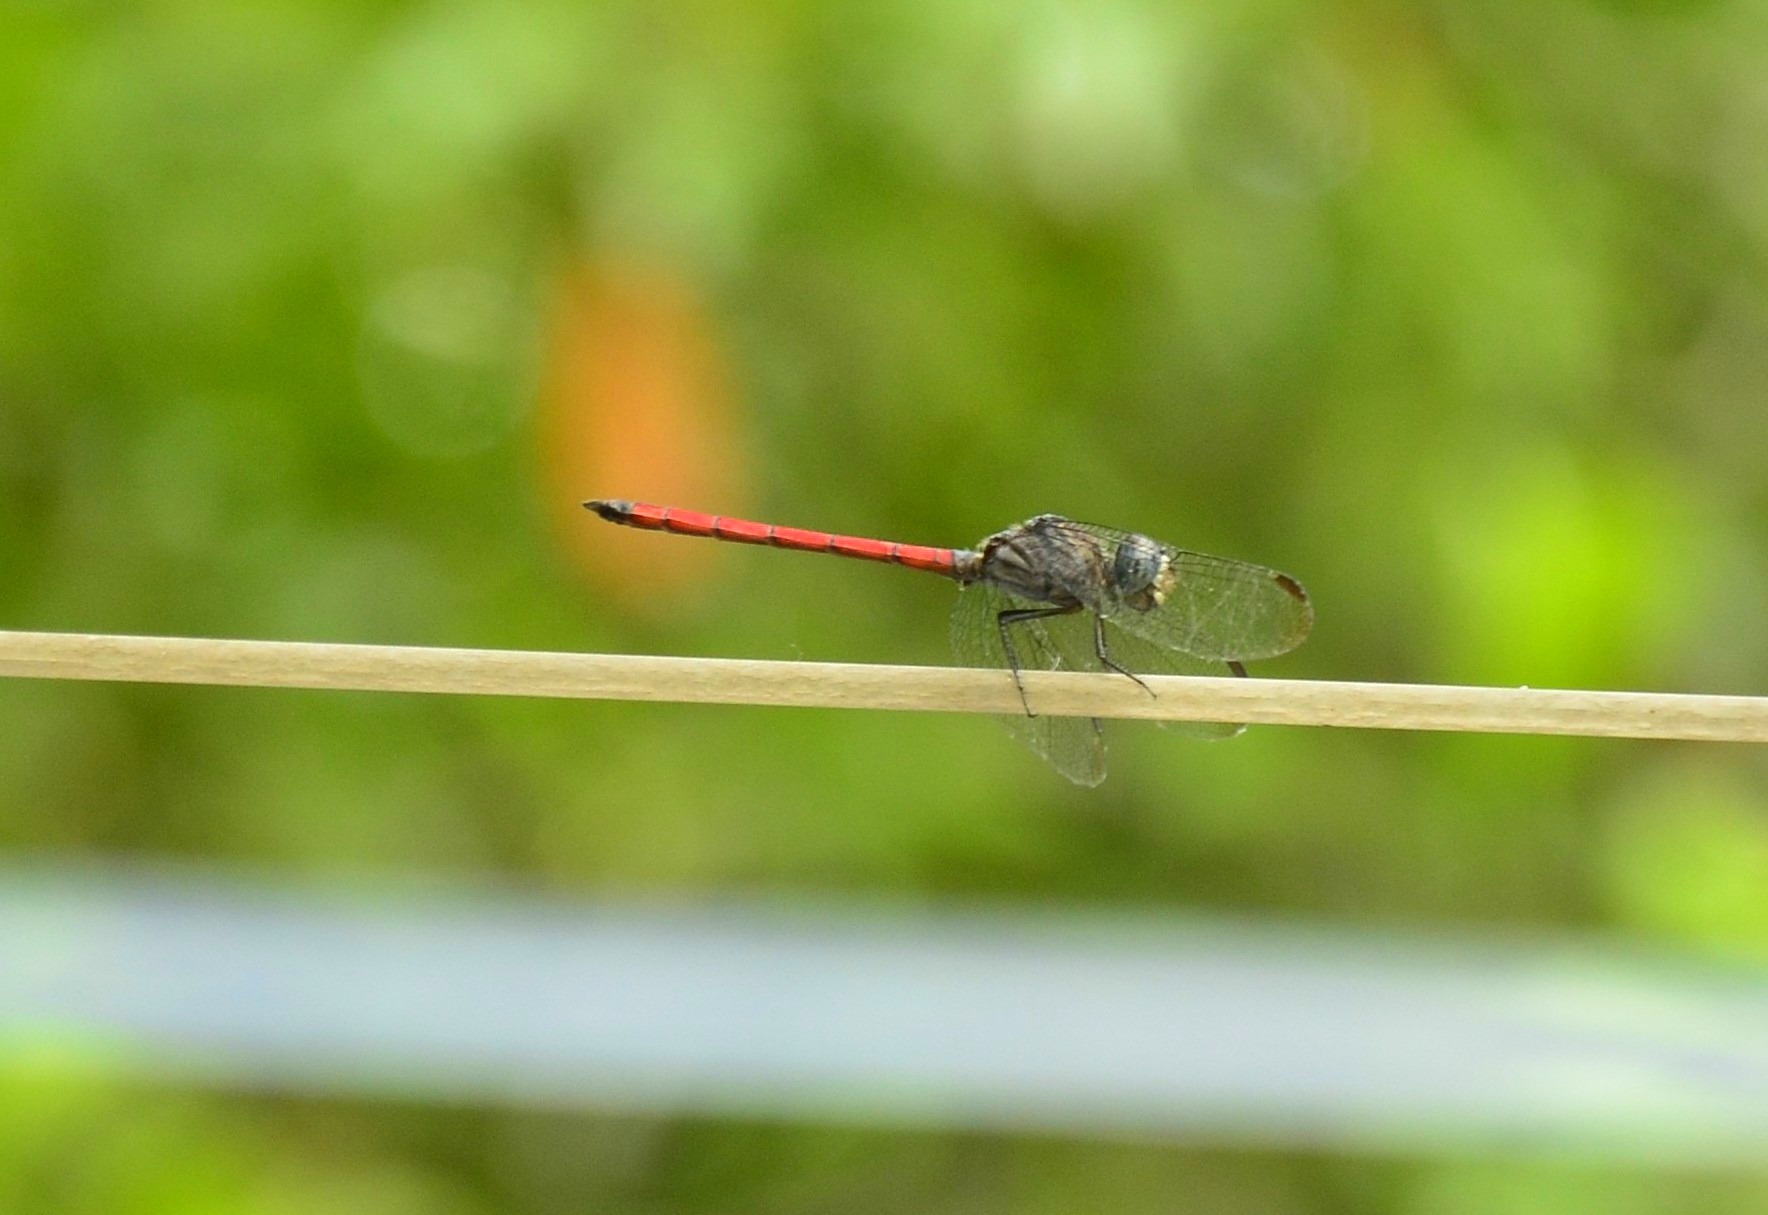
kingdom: Animalia
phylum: Arthropoda
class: Insecta
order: Odonata
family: Libellulidae
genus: Lathrecista
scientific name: Lathrecista asiatica
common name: Scarlet grenadier
